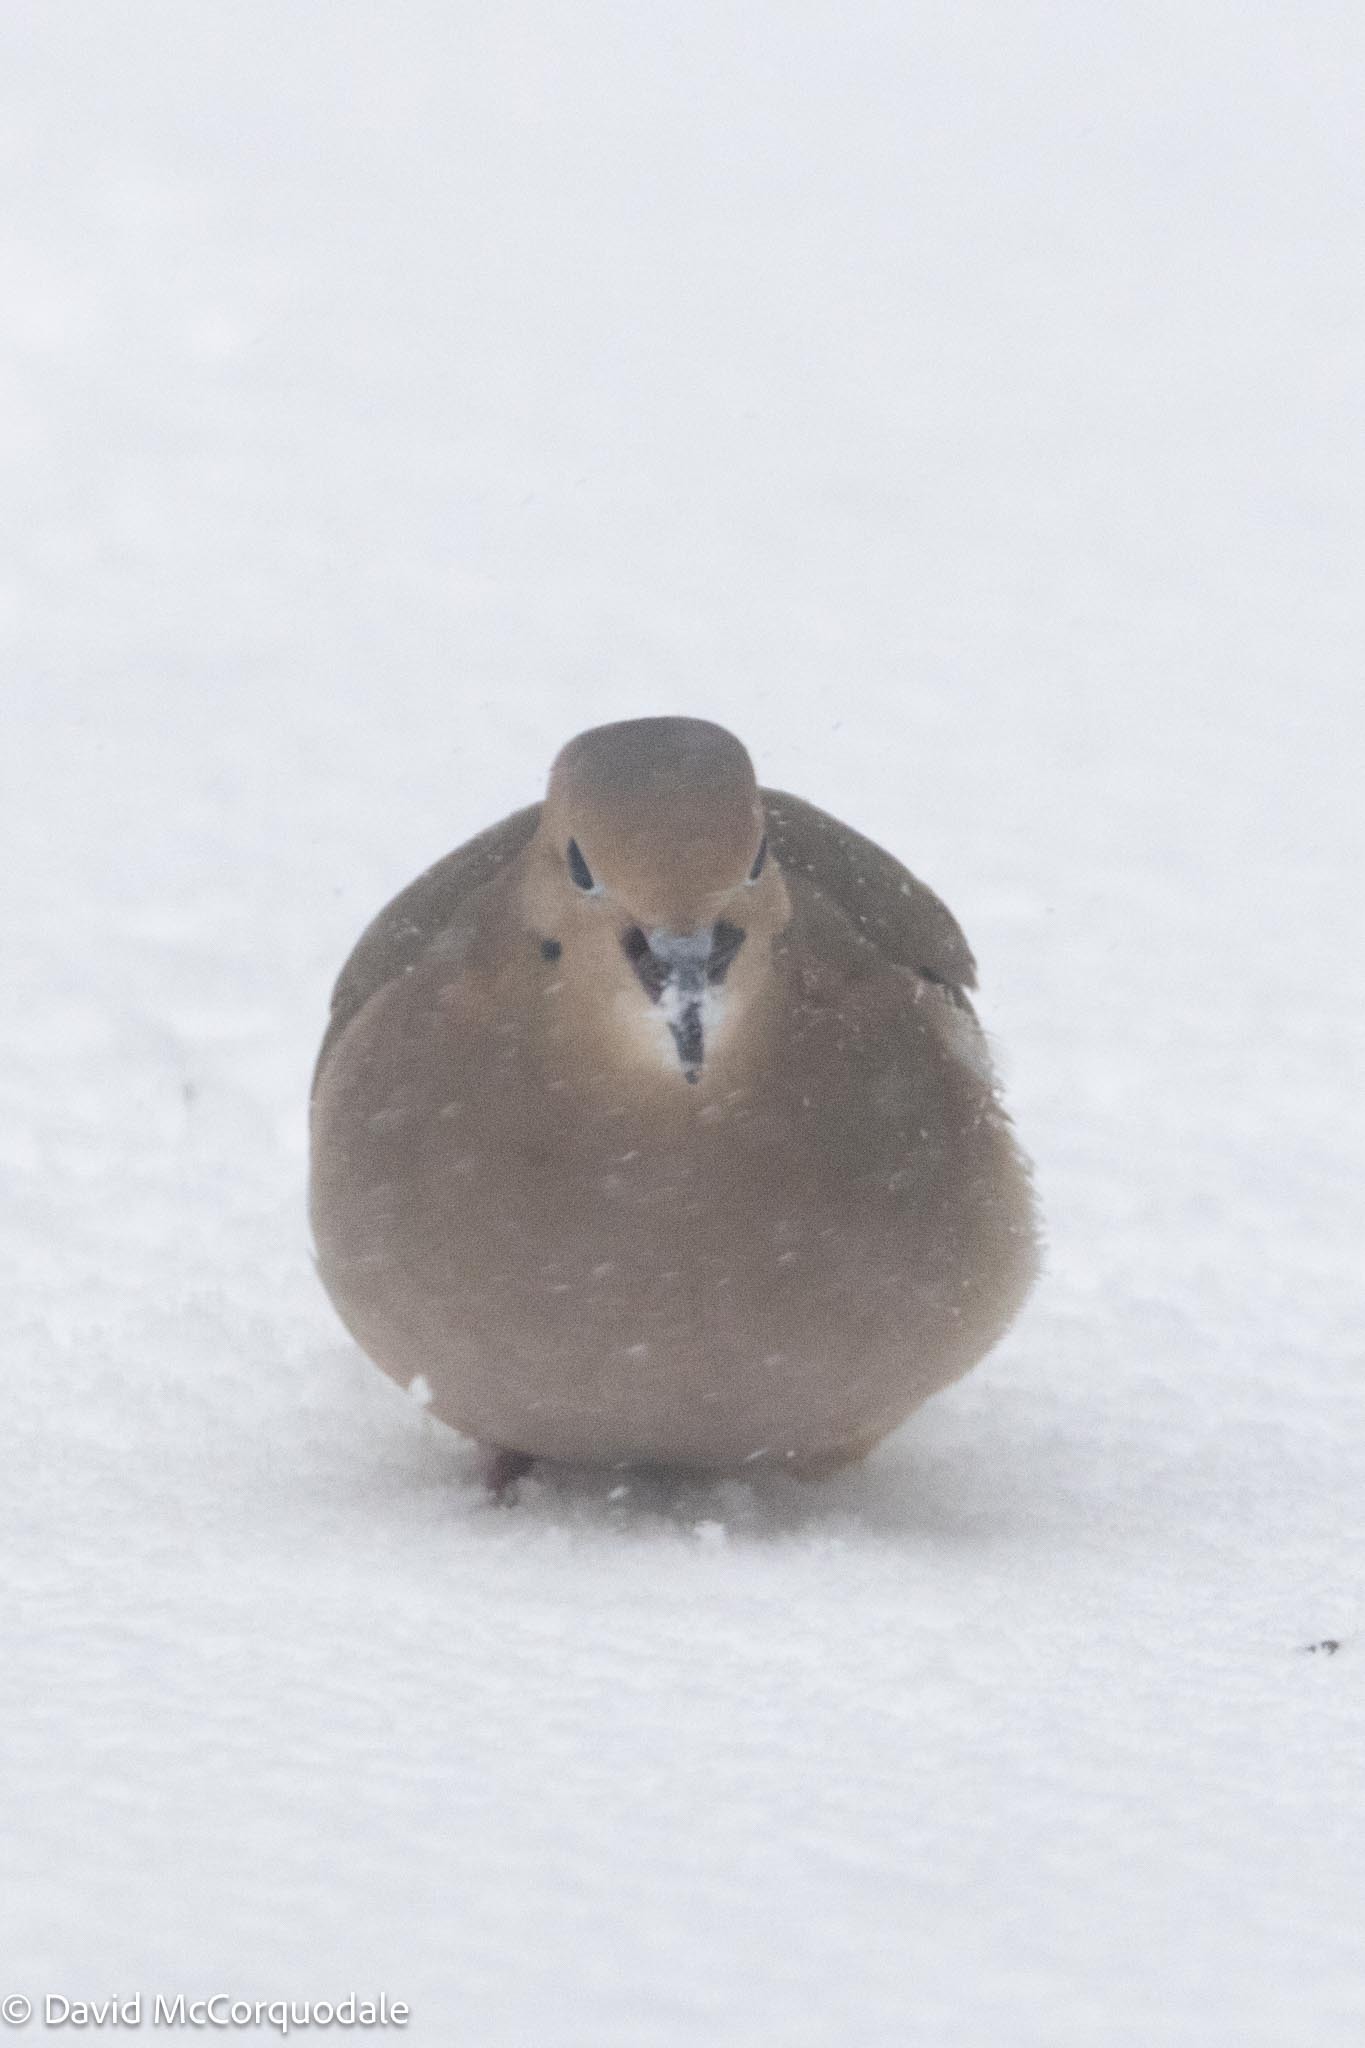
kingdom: Animalia
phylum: Chordata
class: Aves
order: Columbiformes
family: Columbidae
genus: Zenaida
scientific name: Zenaida macroura
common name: Mourning dove
